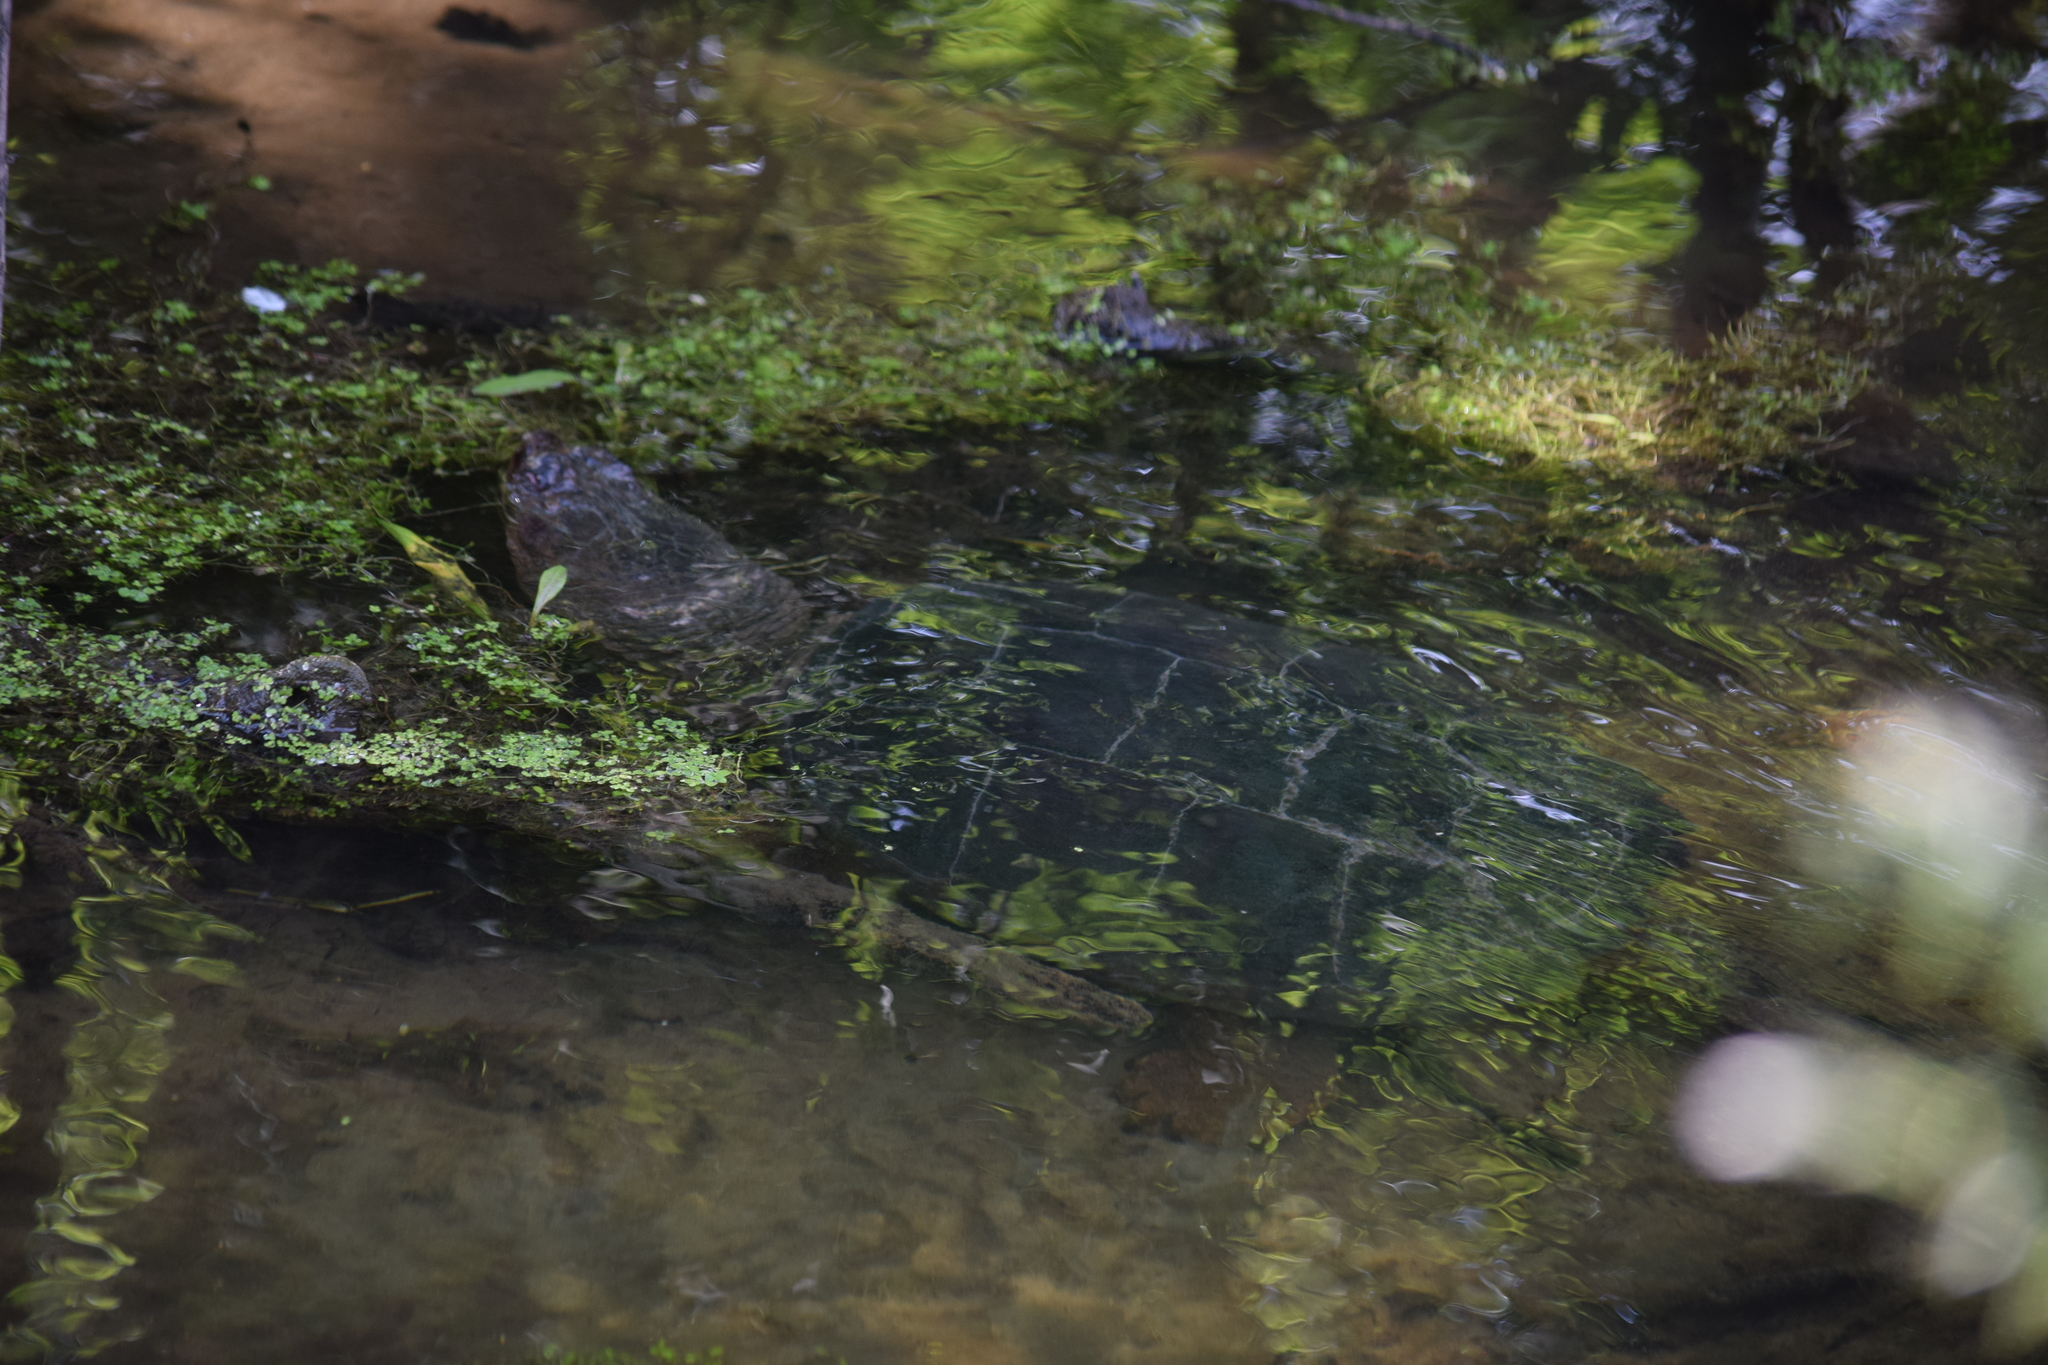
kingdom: Animalia
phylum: Chordata
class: Testudines
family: Chelydridae
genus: Chelydra
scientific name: Chelydra serpentina
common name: Common snapping turtle
